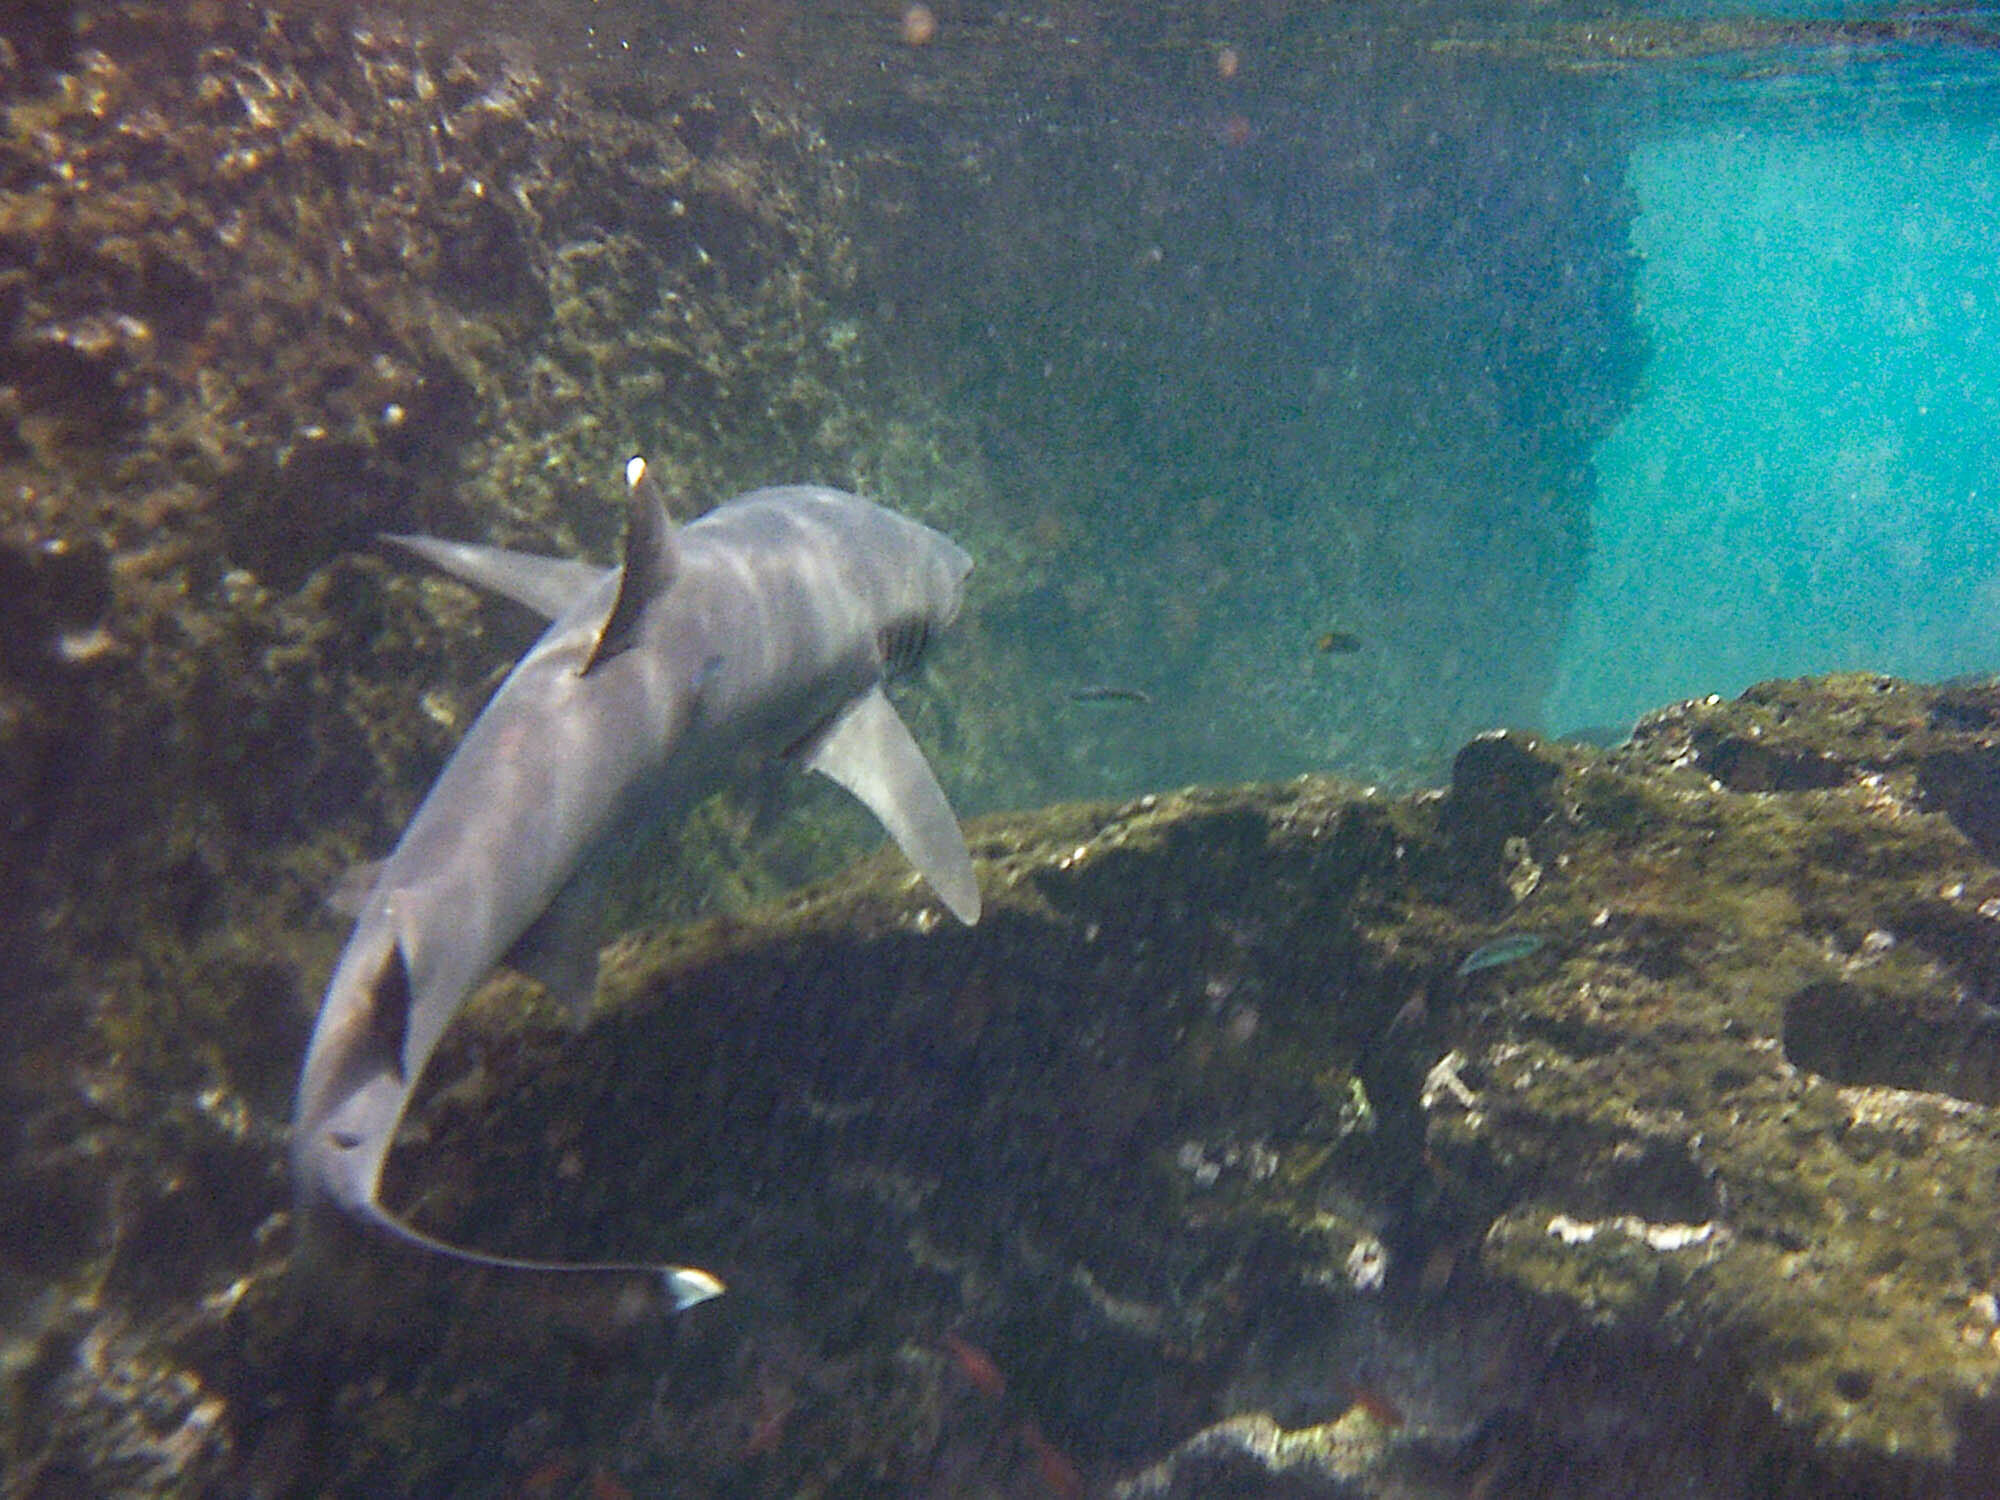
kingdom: Animalia
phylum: Chordata
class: Elasmobranchii
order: Carcharhiniformes
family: Carcharhinidae
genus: Triaenodon
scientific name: Triaenodon obesus
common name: Whitetip reef shark
